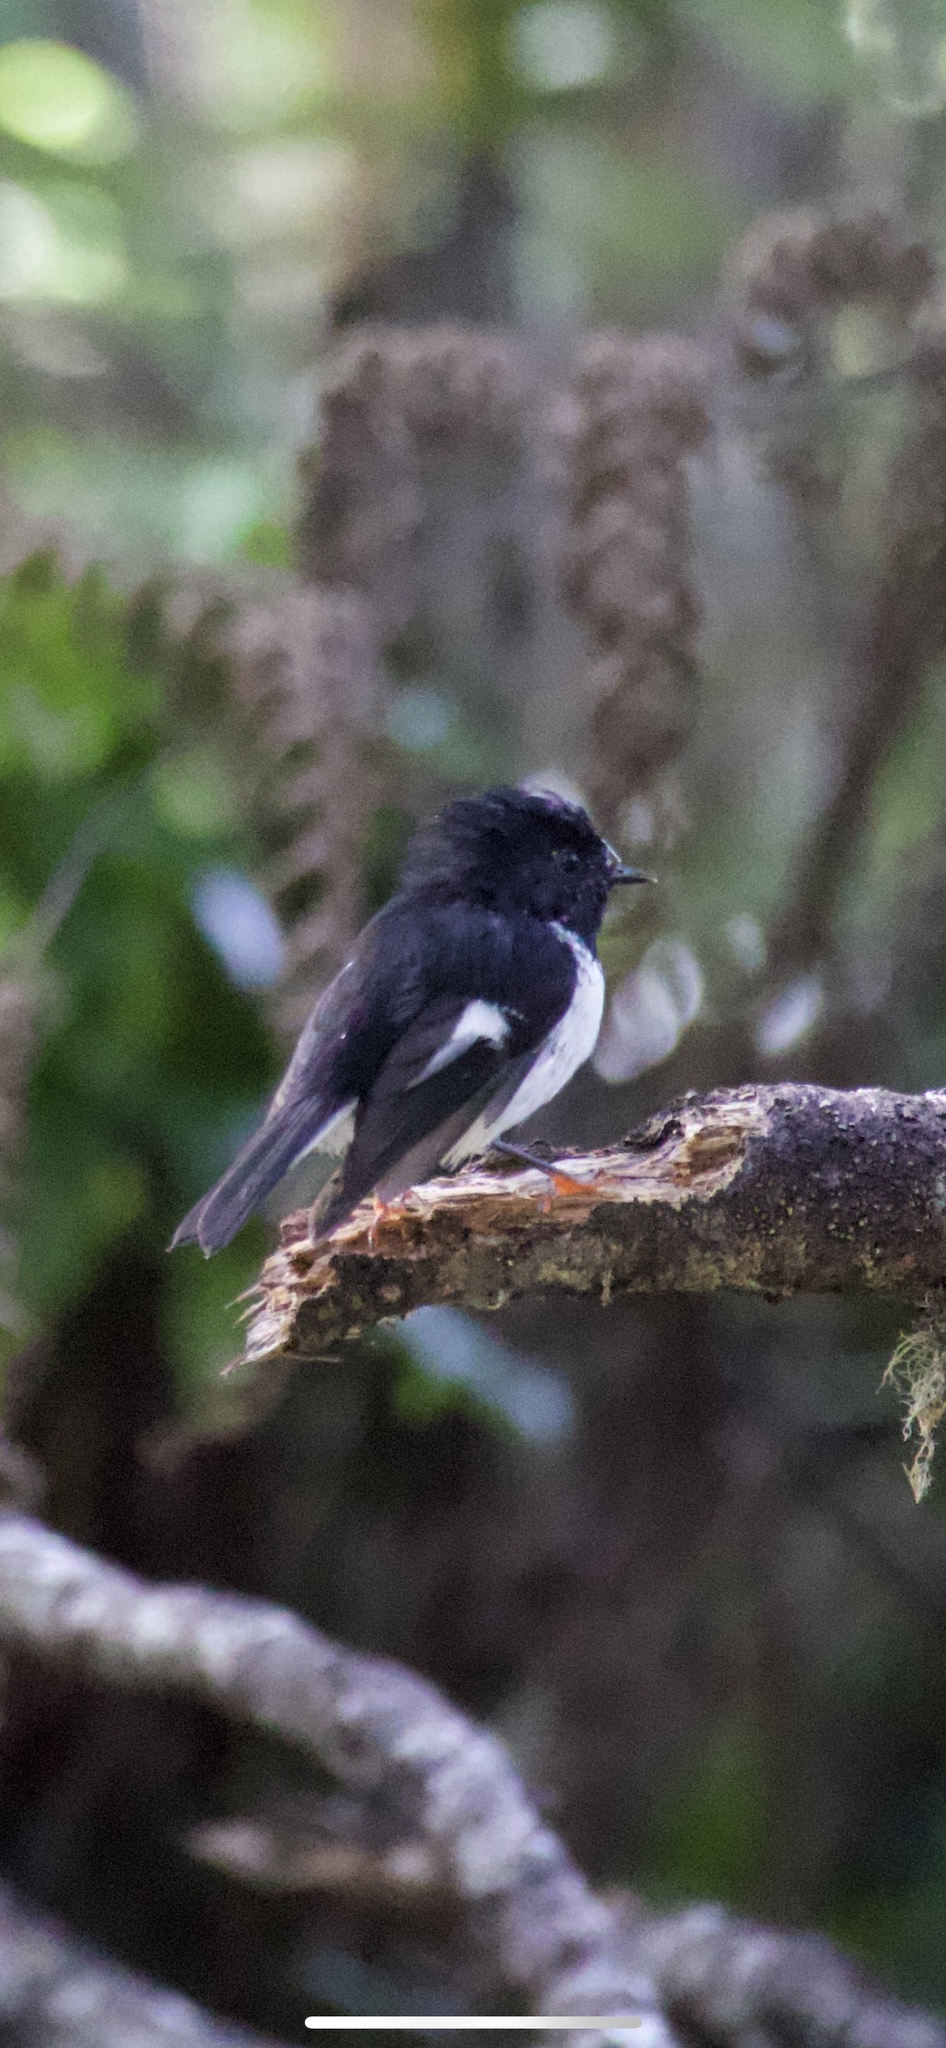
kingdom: Animalia
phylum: Chordata
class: Aves
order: Passeriformes
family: Petroicidae
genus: Petroica
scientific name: Petroica macrocephala
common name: Tomtit
